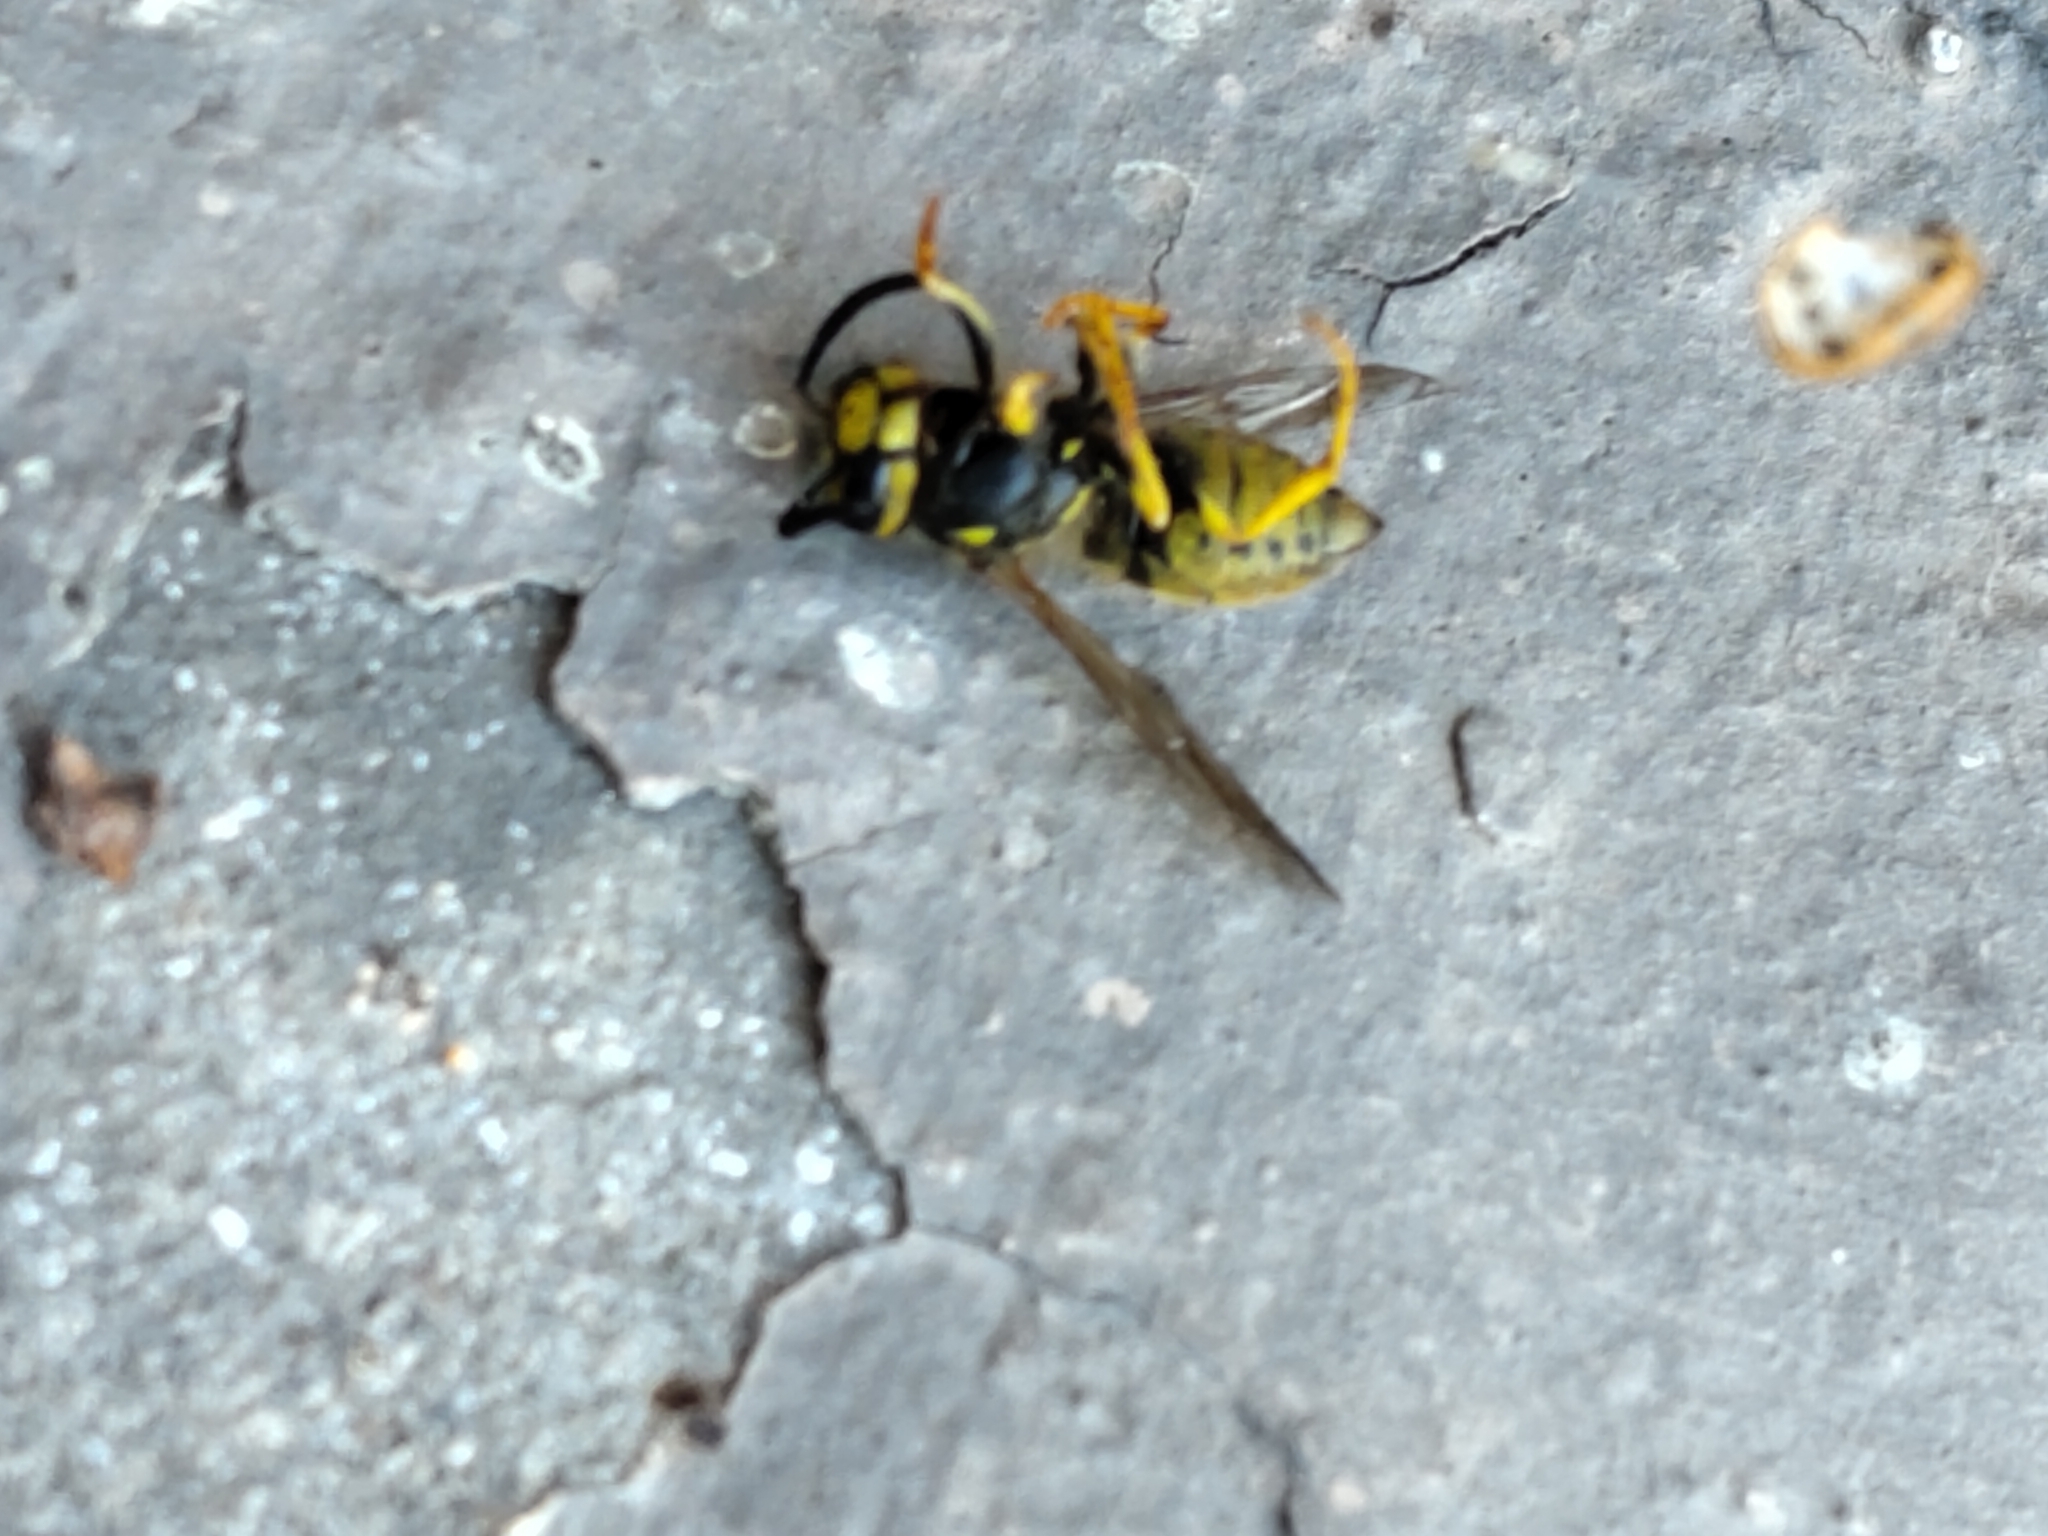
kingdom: Animalia
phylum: Arthropoda
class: Insecta
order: Hymenoptera
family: Vespidae
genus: Vespula
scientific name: Vespula germanica
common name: German wasp
